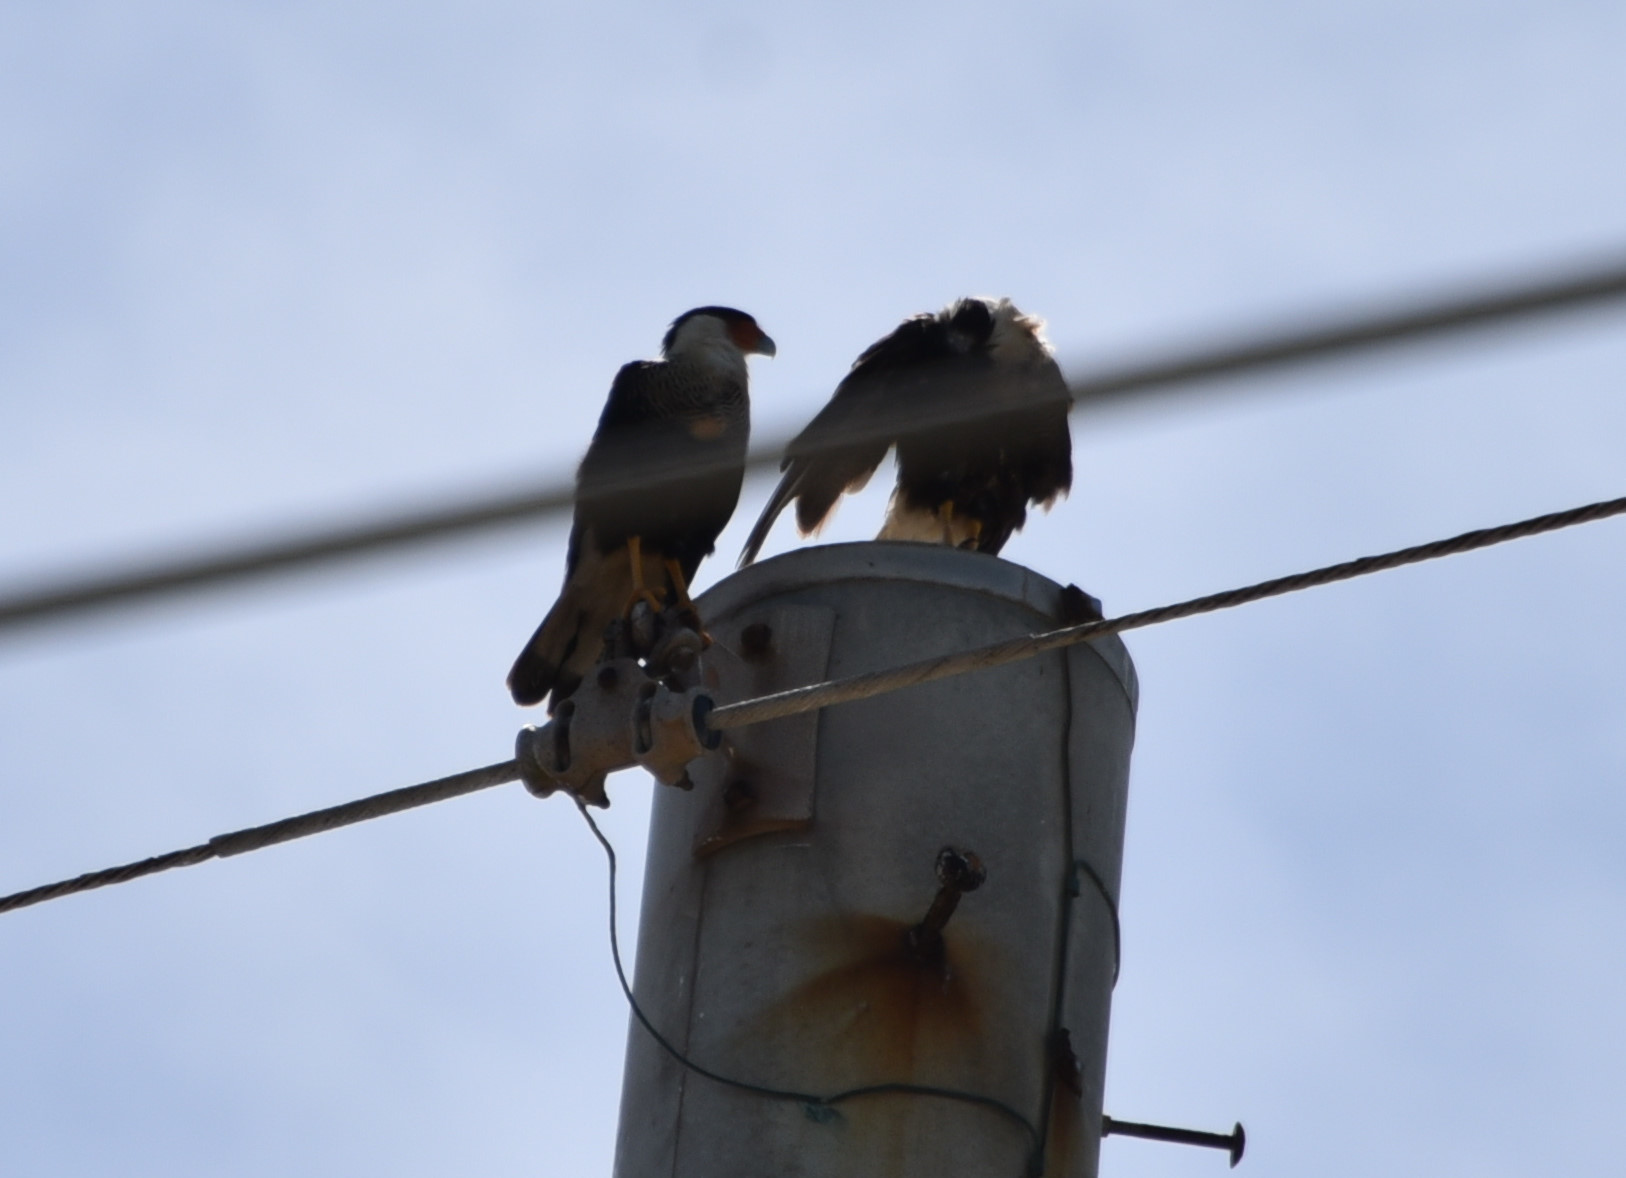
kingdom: Animalia
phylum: Chordata
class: Aves
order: Falconiformes
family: Falconidae
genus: Caracara
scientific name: Caracara plancus
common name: Southern caracara
